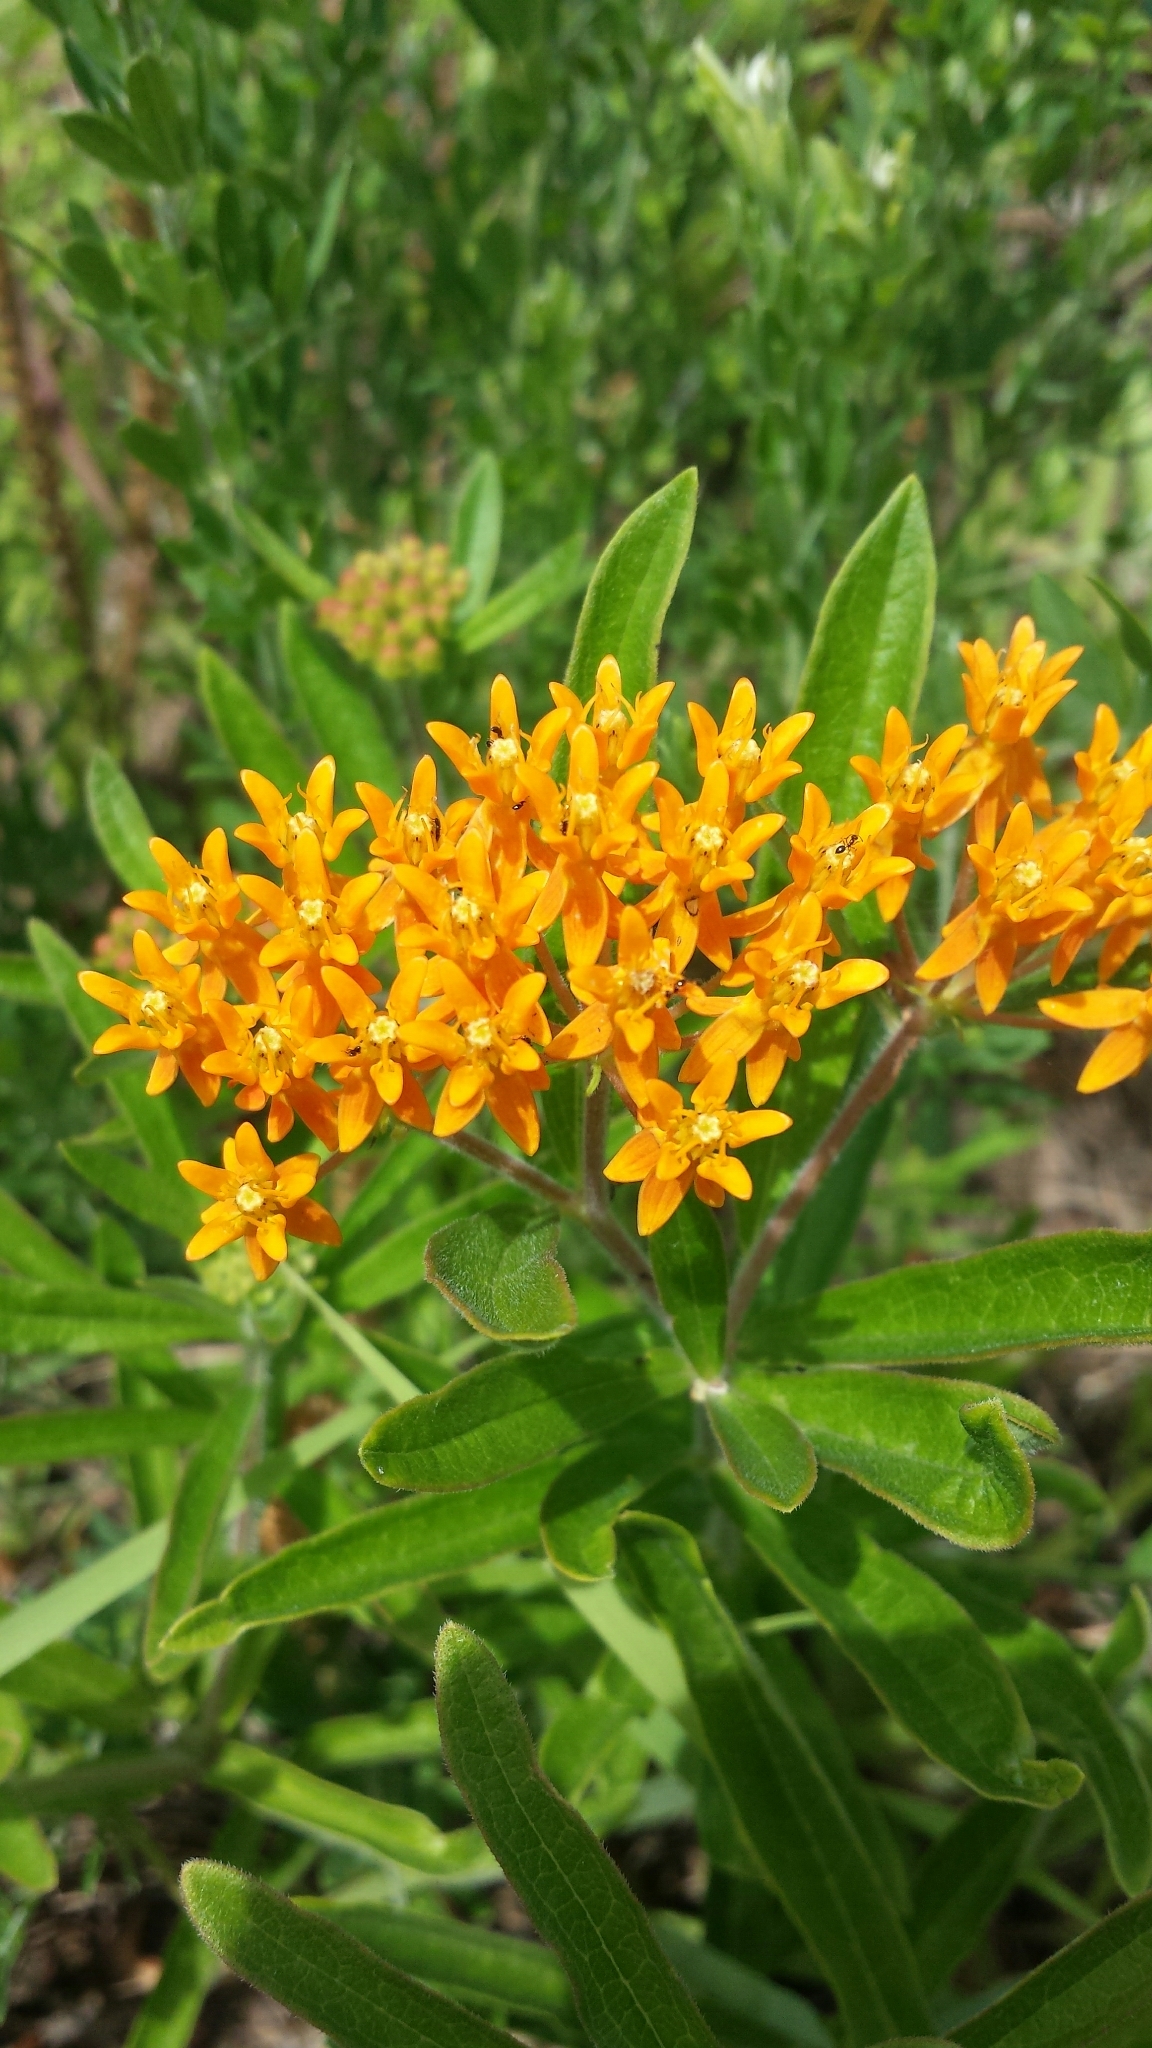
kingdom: Plantae
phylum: Tracheophyta
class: Magnoliopsida
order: Gentianales
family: Apocynaceae
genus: Asclepias
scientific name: Asclepias tuberosa
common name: Butterfly milkweed
